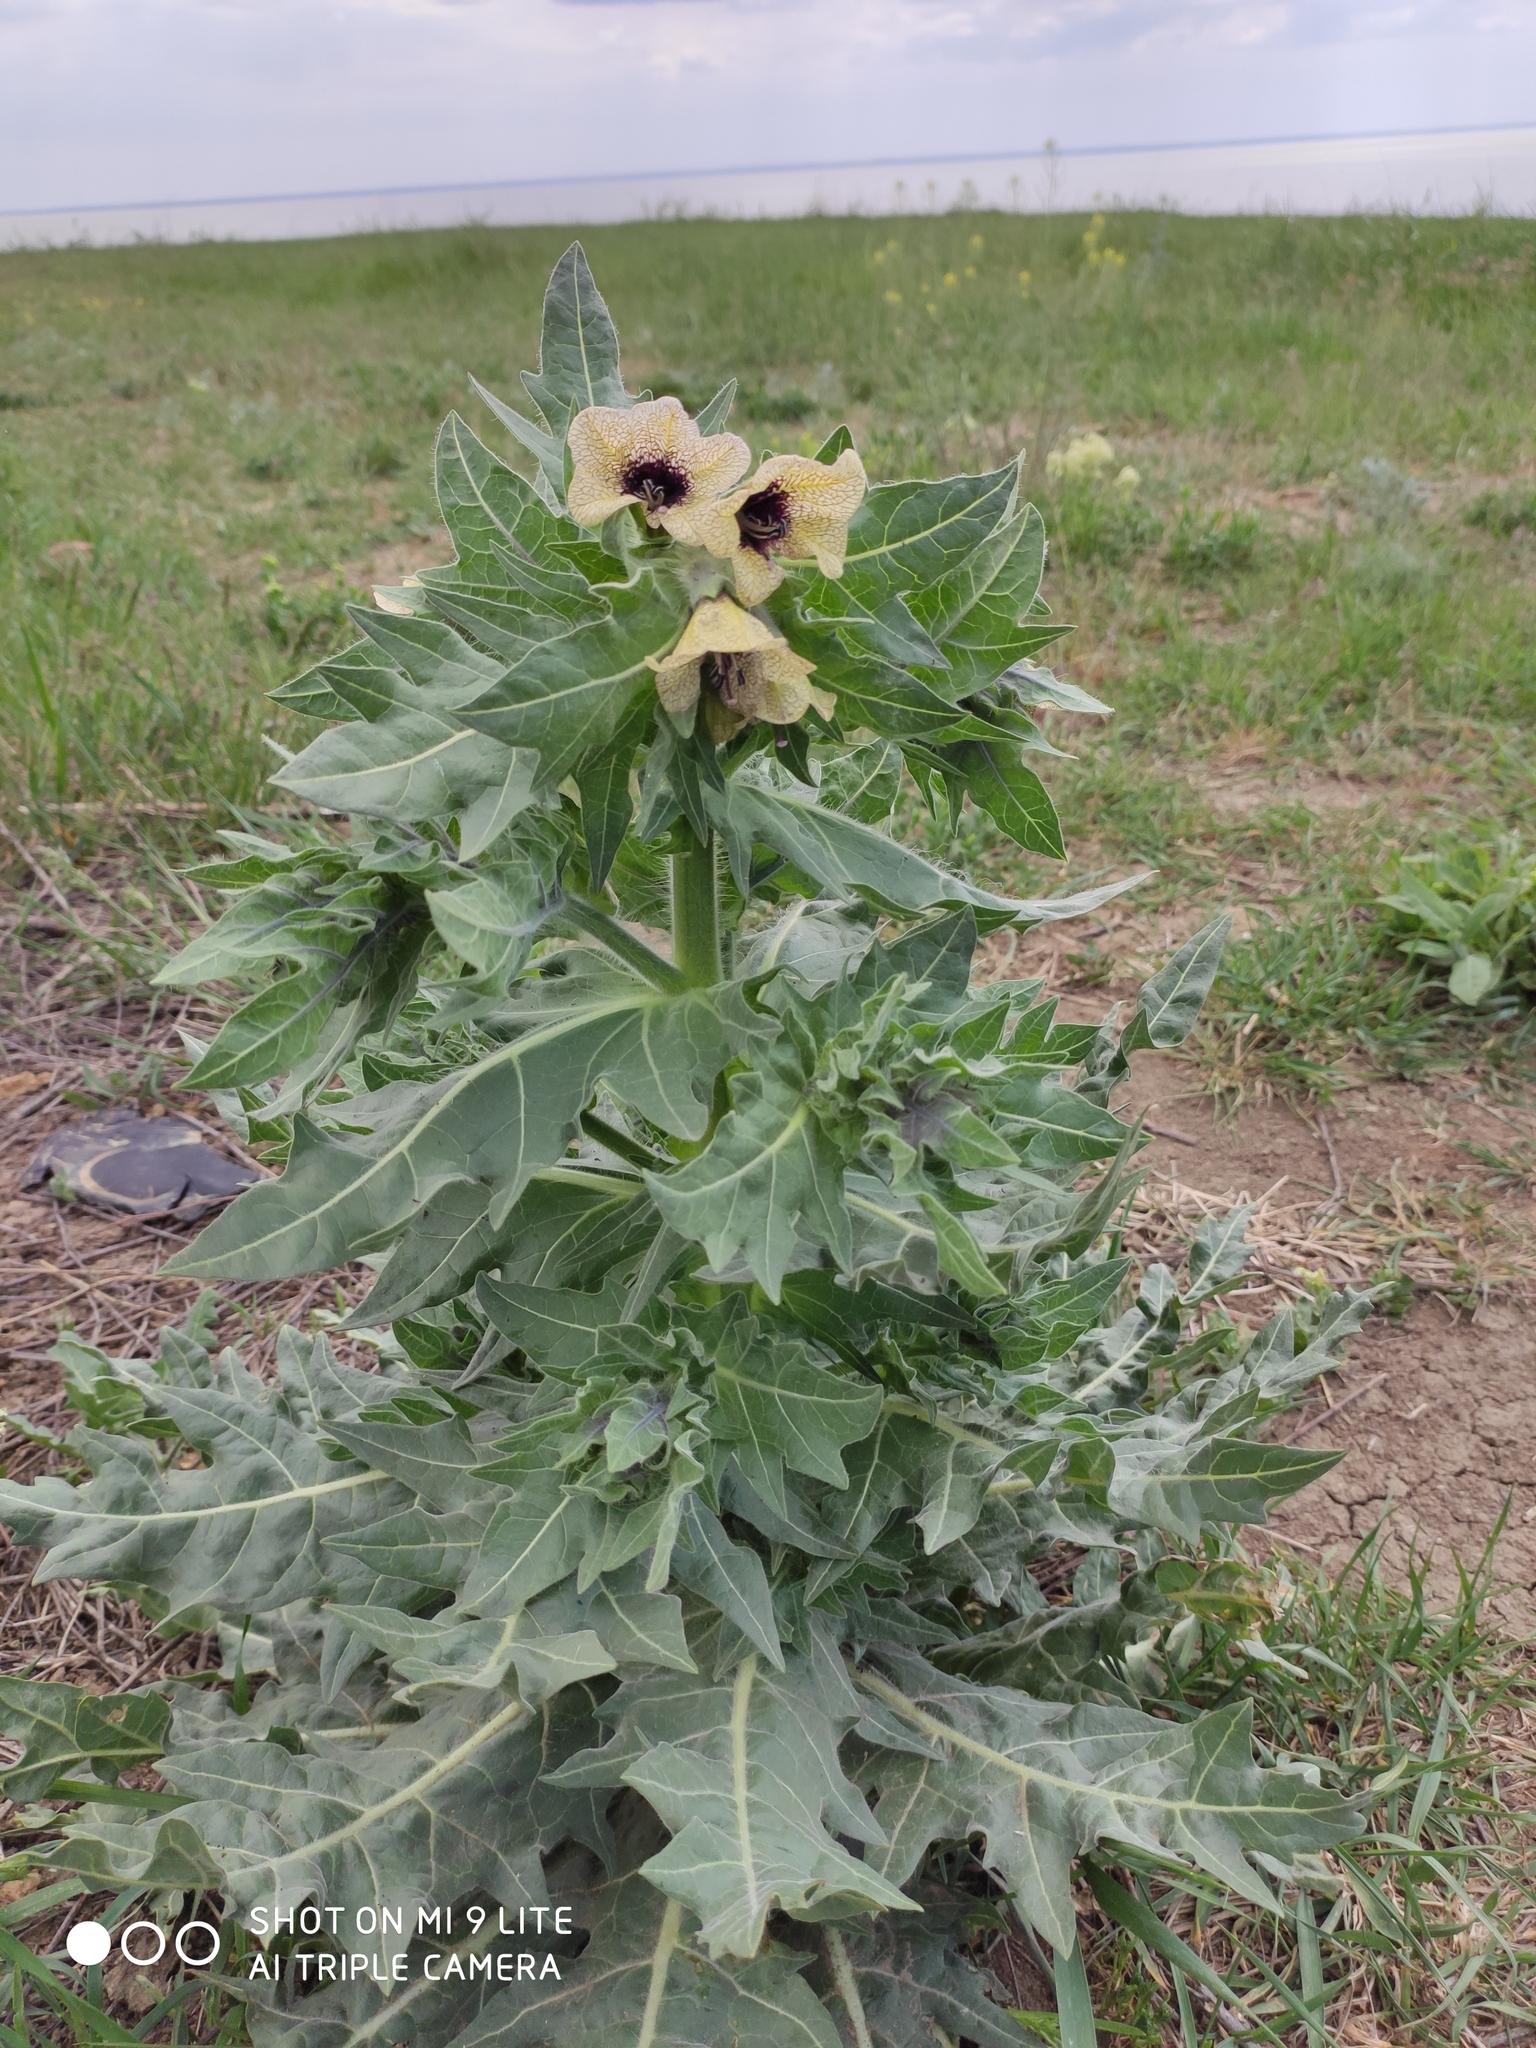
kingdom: Plantae
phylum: Tracheophyta
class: Magnoliopsida
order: Solanales
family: Solanaceae
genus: Hyoscyamus
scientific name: Hyoscyamus niger
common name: Henbane
